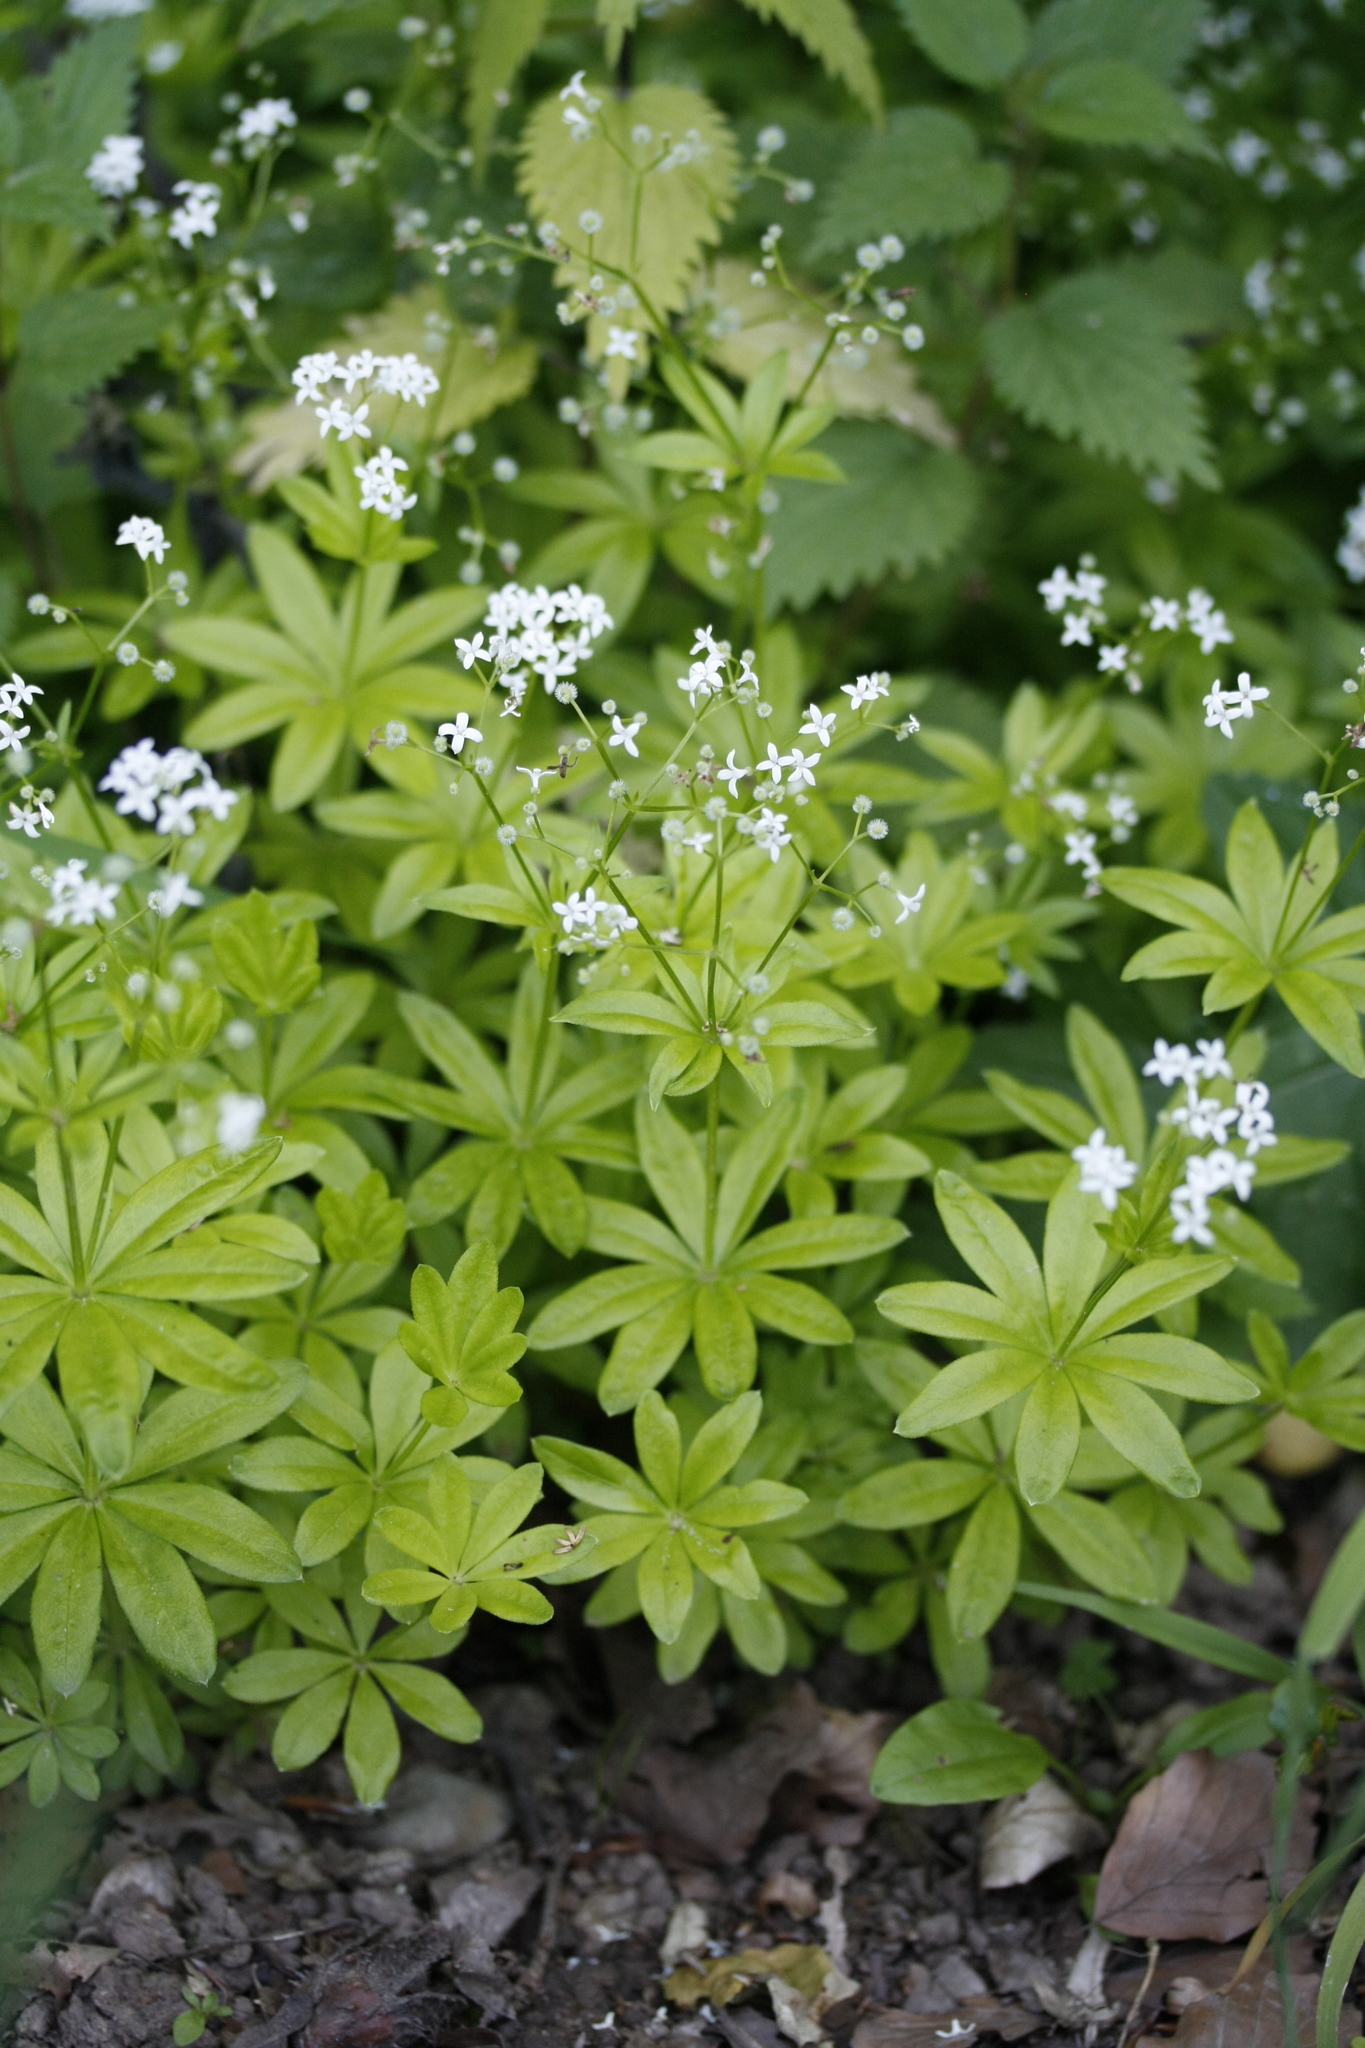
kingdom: Plantae
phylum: Tracheophyta
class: Magnoliopsida
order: Gentianales
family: Rubiaceae
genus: Galium
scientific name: Galium odoratum
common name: Sweet woodruff
